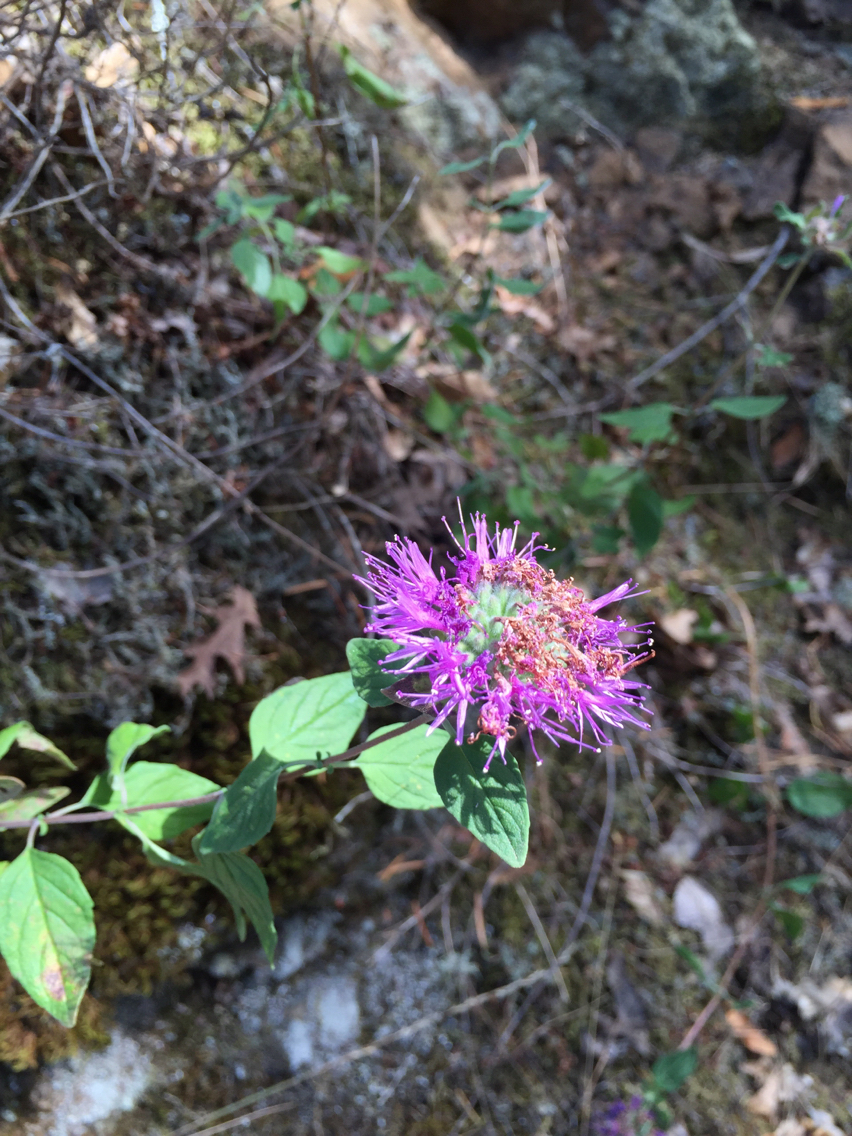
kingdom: Plantae
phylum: Tracheophyta
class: Magnoliopsida
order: Lamiales
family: Lamiaceae
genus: Monardella
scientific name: Monardella odoratissima
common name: Pacific monardella
